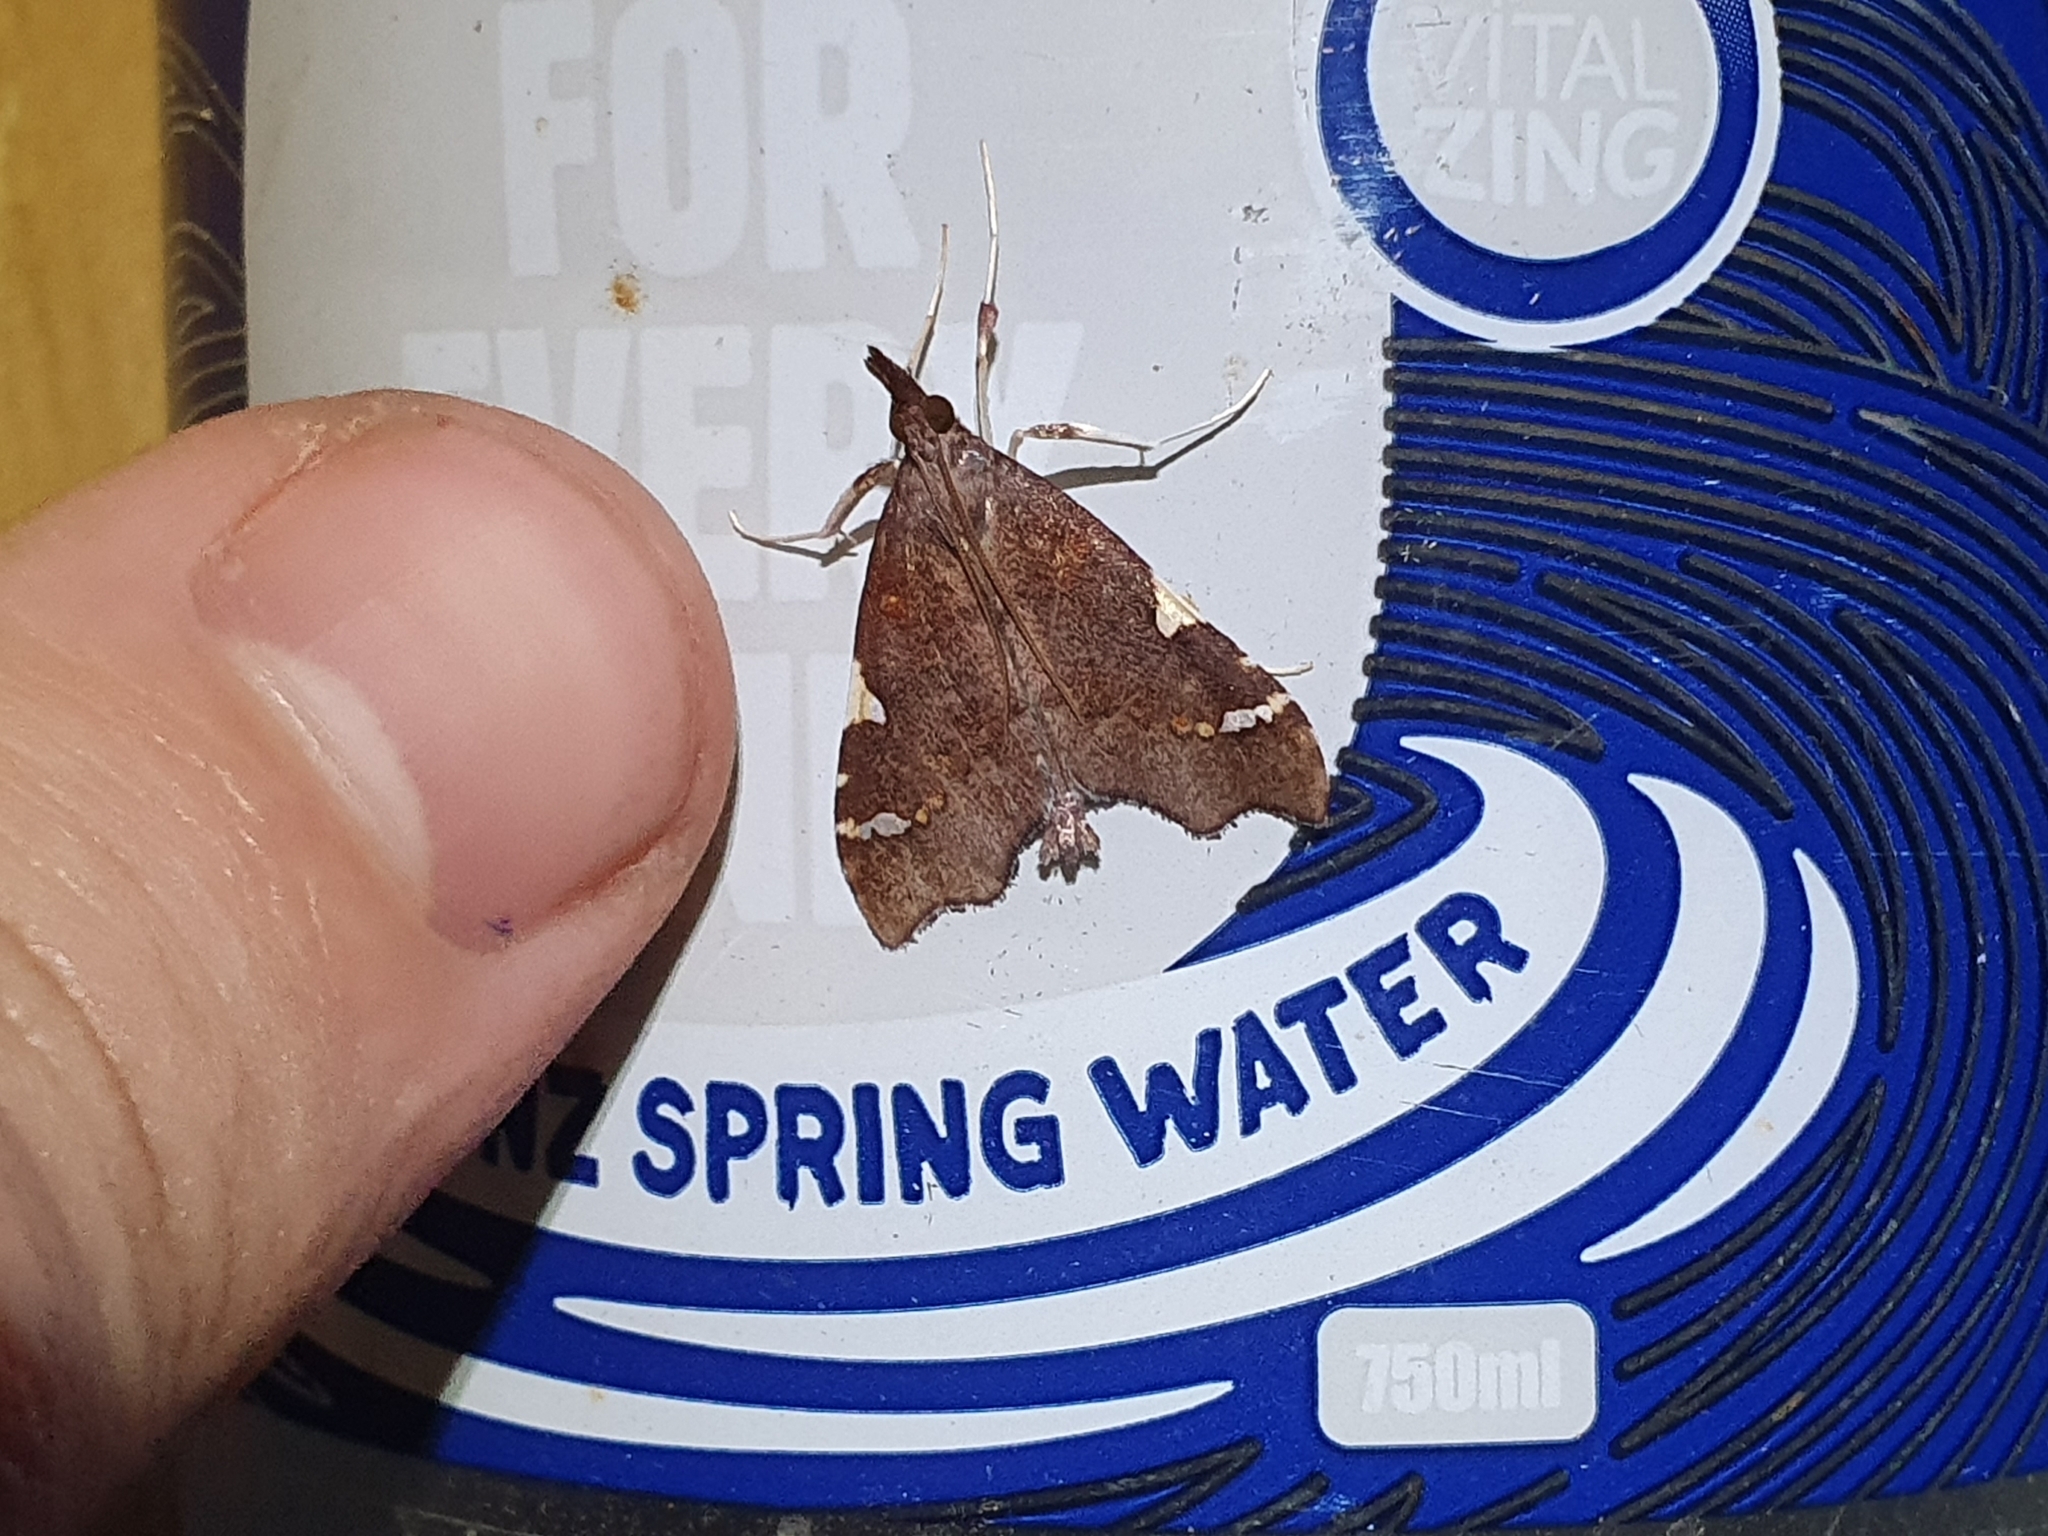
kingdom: Animalia
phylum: Arthropoda
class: Insecta
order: Lepidoptera
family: Crambidae
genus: Deana
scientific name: Deana hybreasalis
